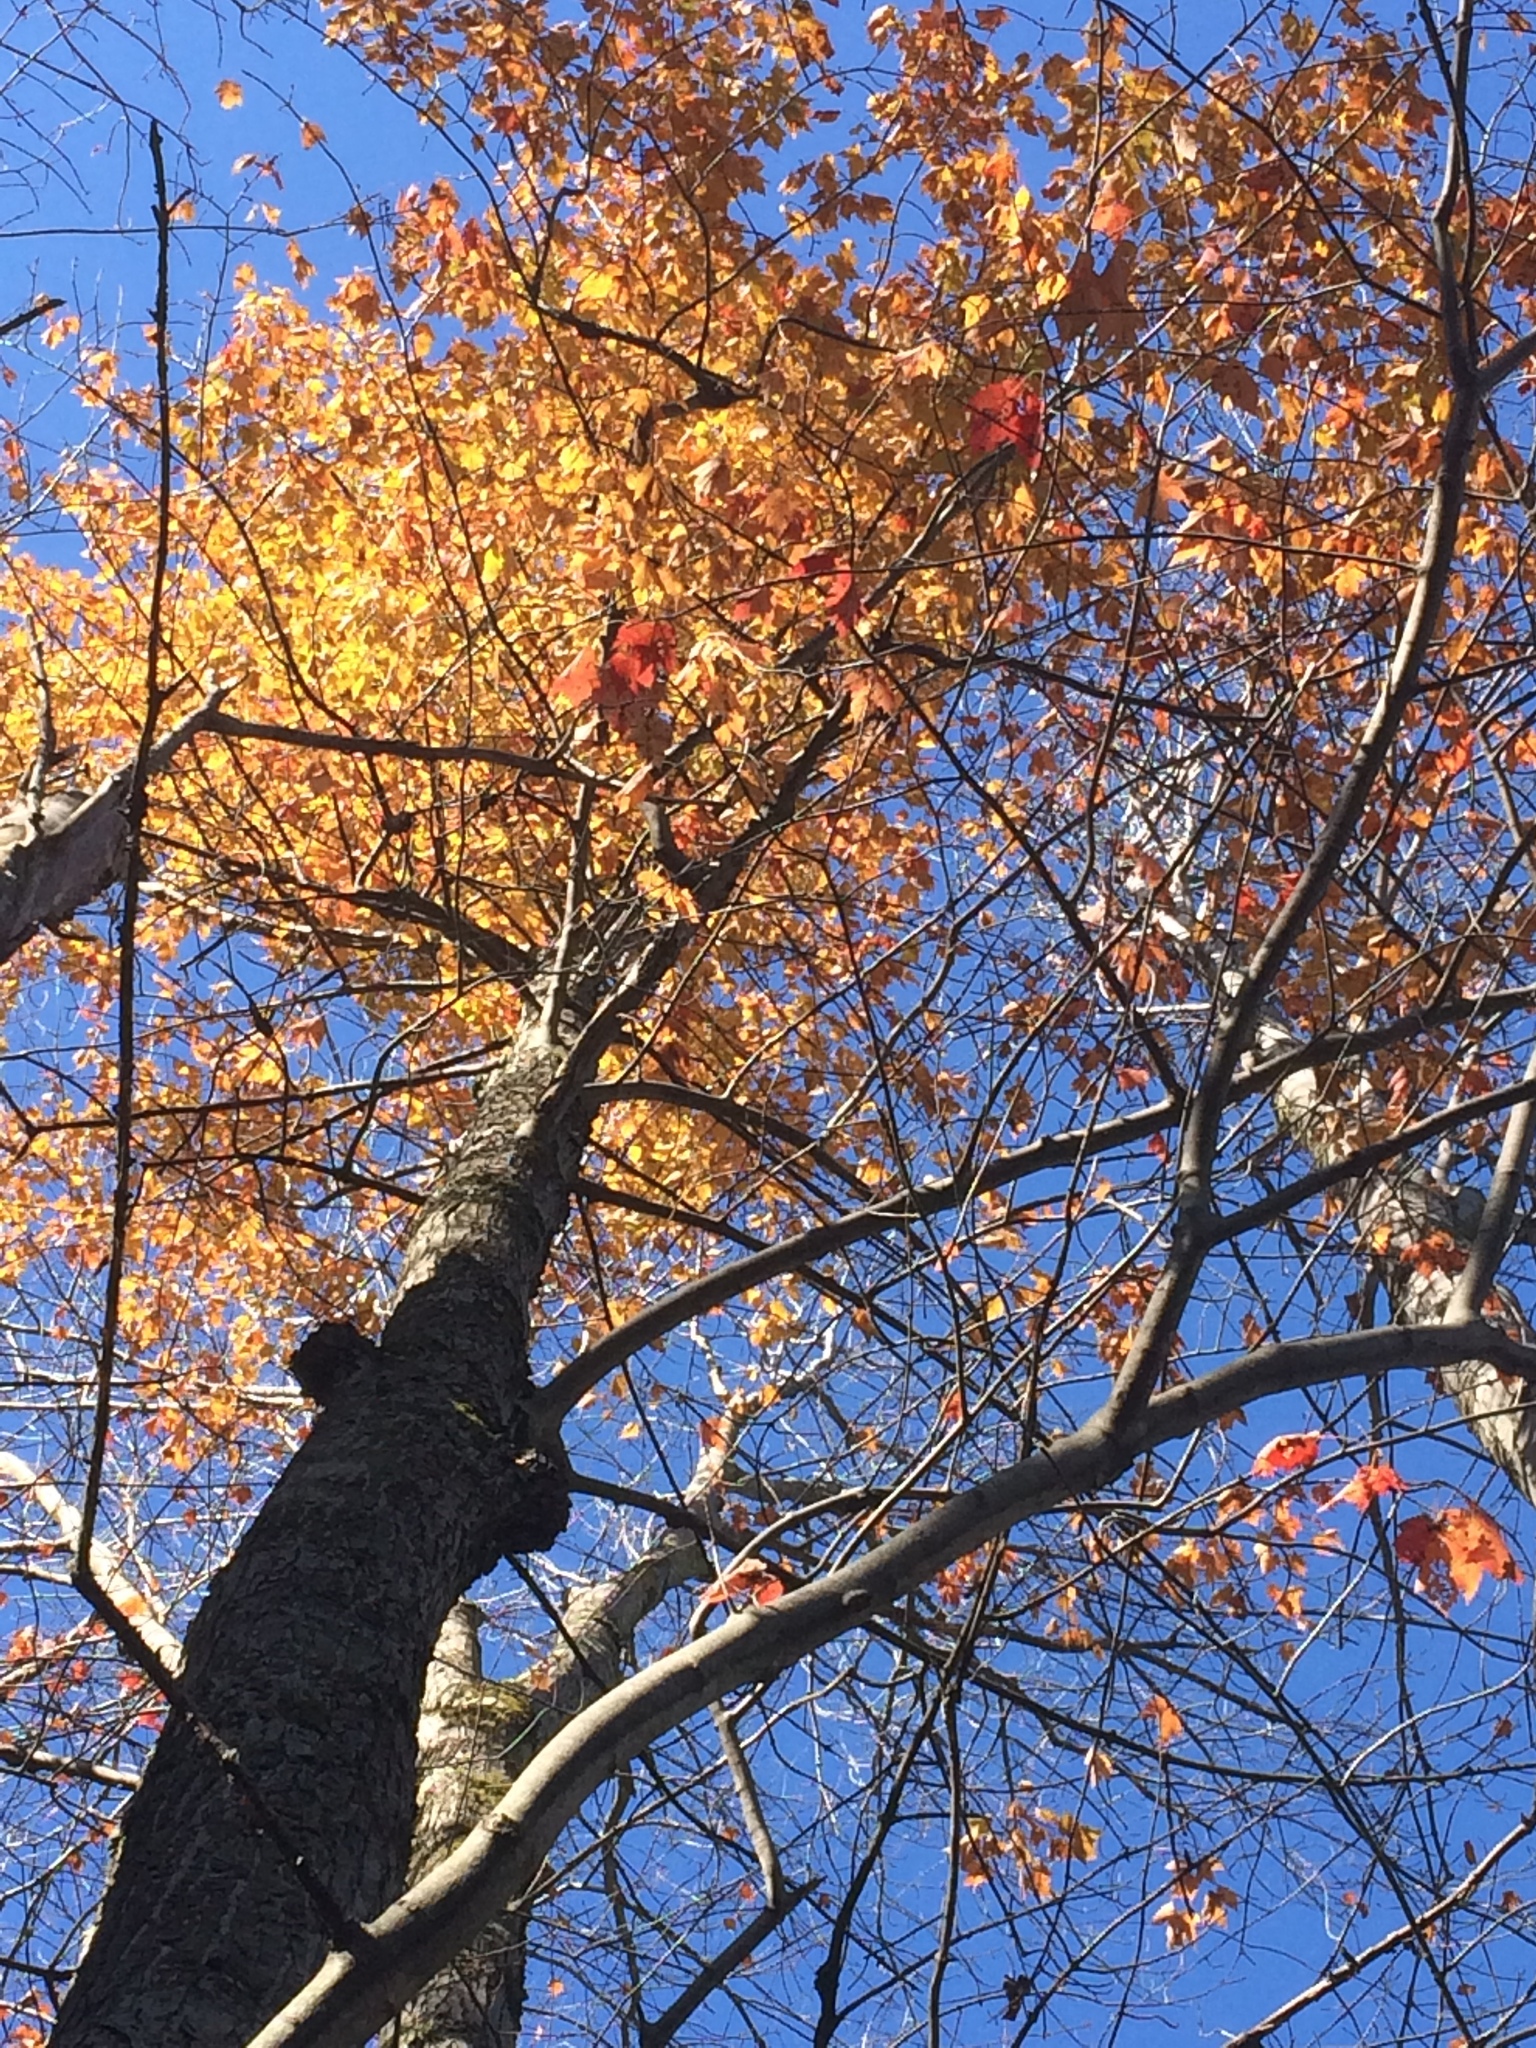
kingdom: Plantae
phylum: Tracheophyta
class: Magnoliopsida
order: Sapindales
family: Sapindaceae
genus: Acer
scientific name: Acer rubrum
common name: Red maple
